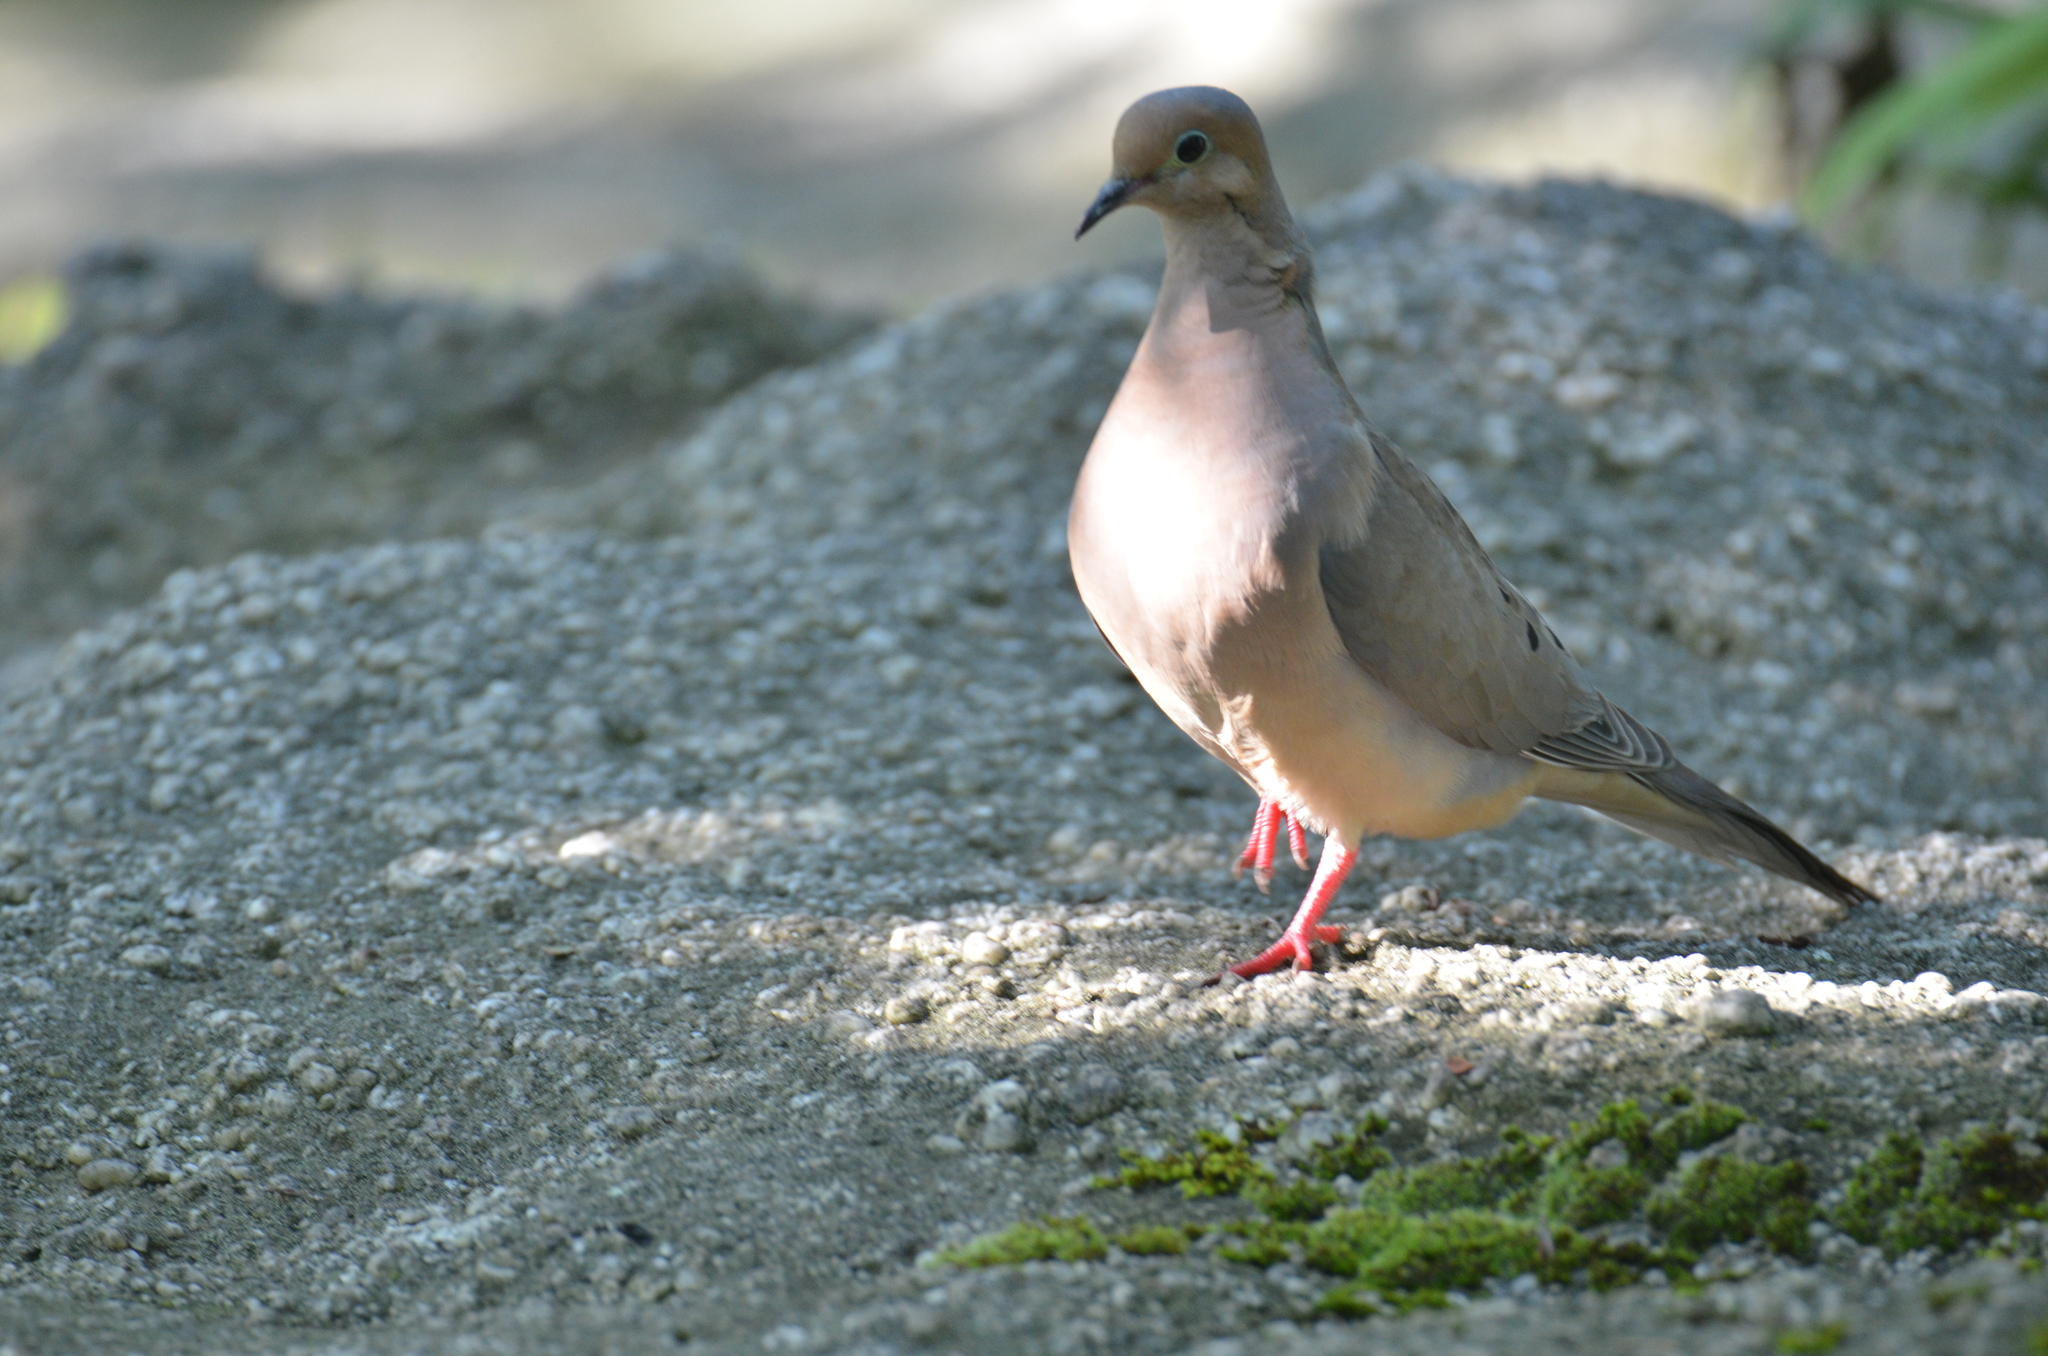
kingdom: Animalia
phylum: Chordata
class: Aves
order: Columbiformes
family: Columbidae
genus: Zenaida
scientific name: Zenaida macroura
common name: Mourning dove
